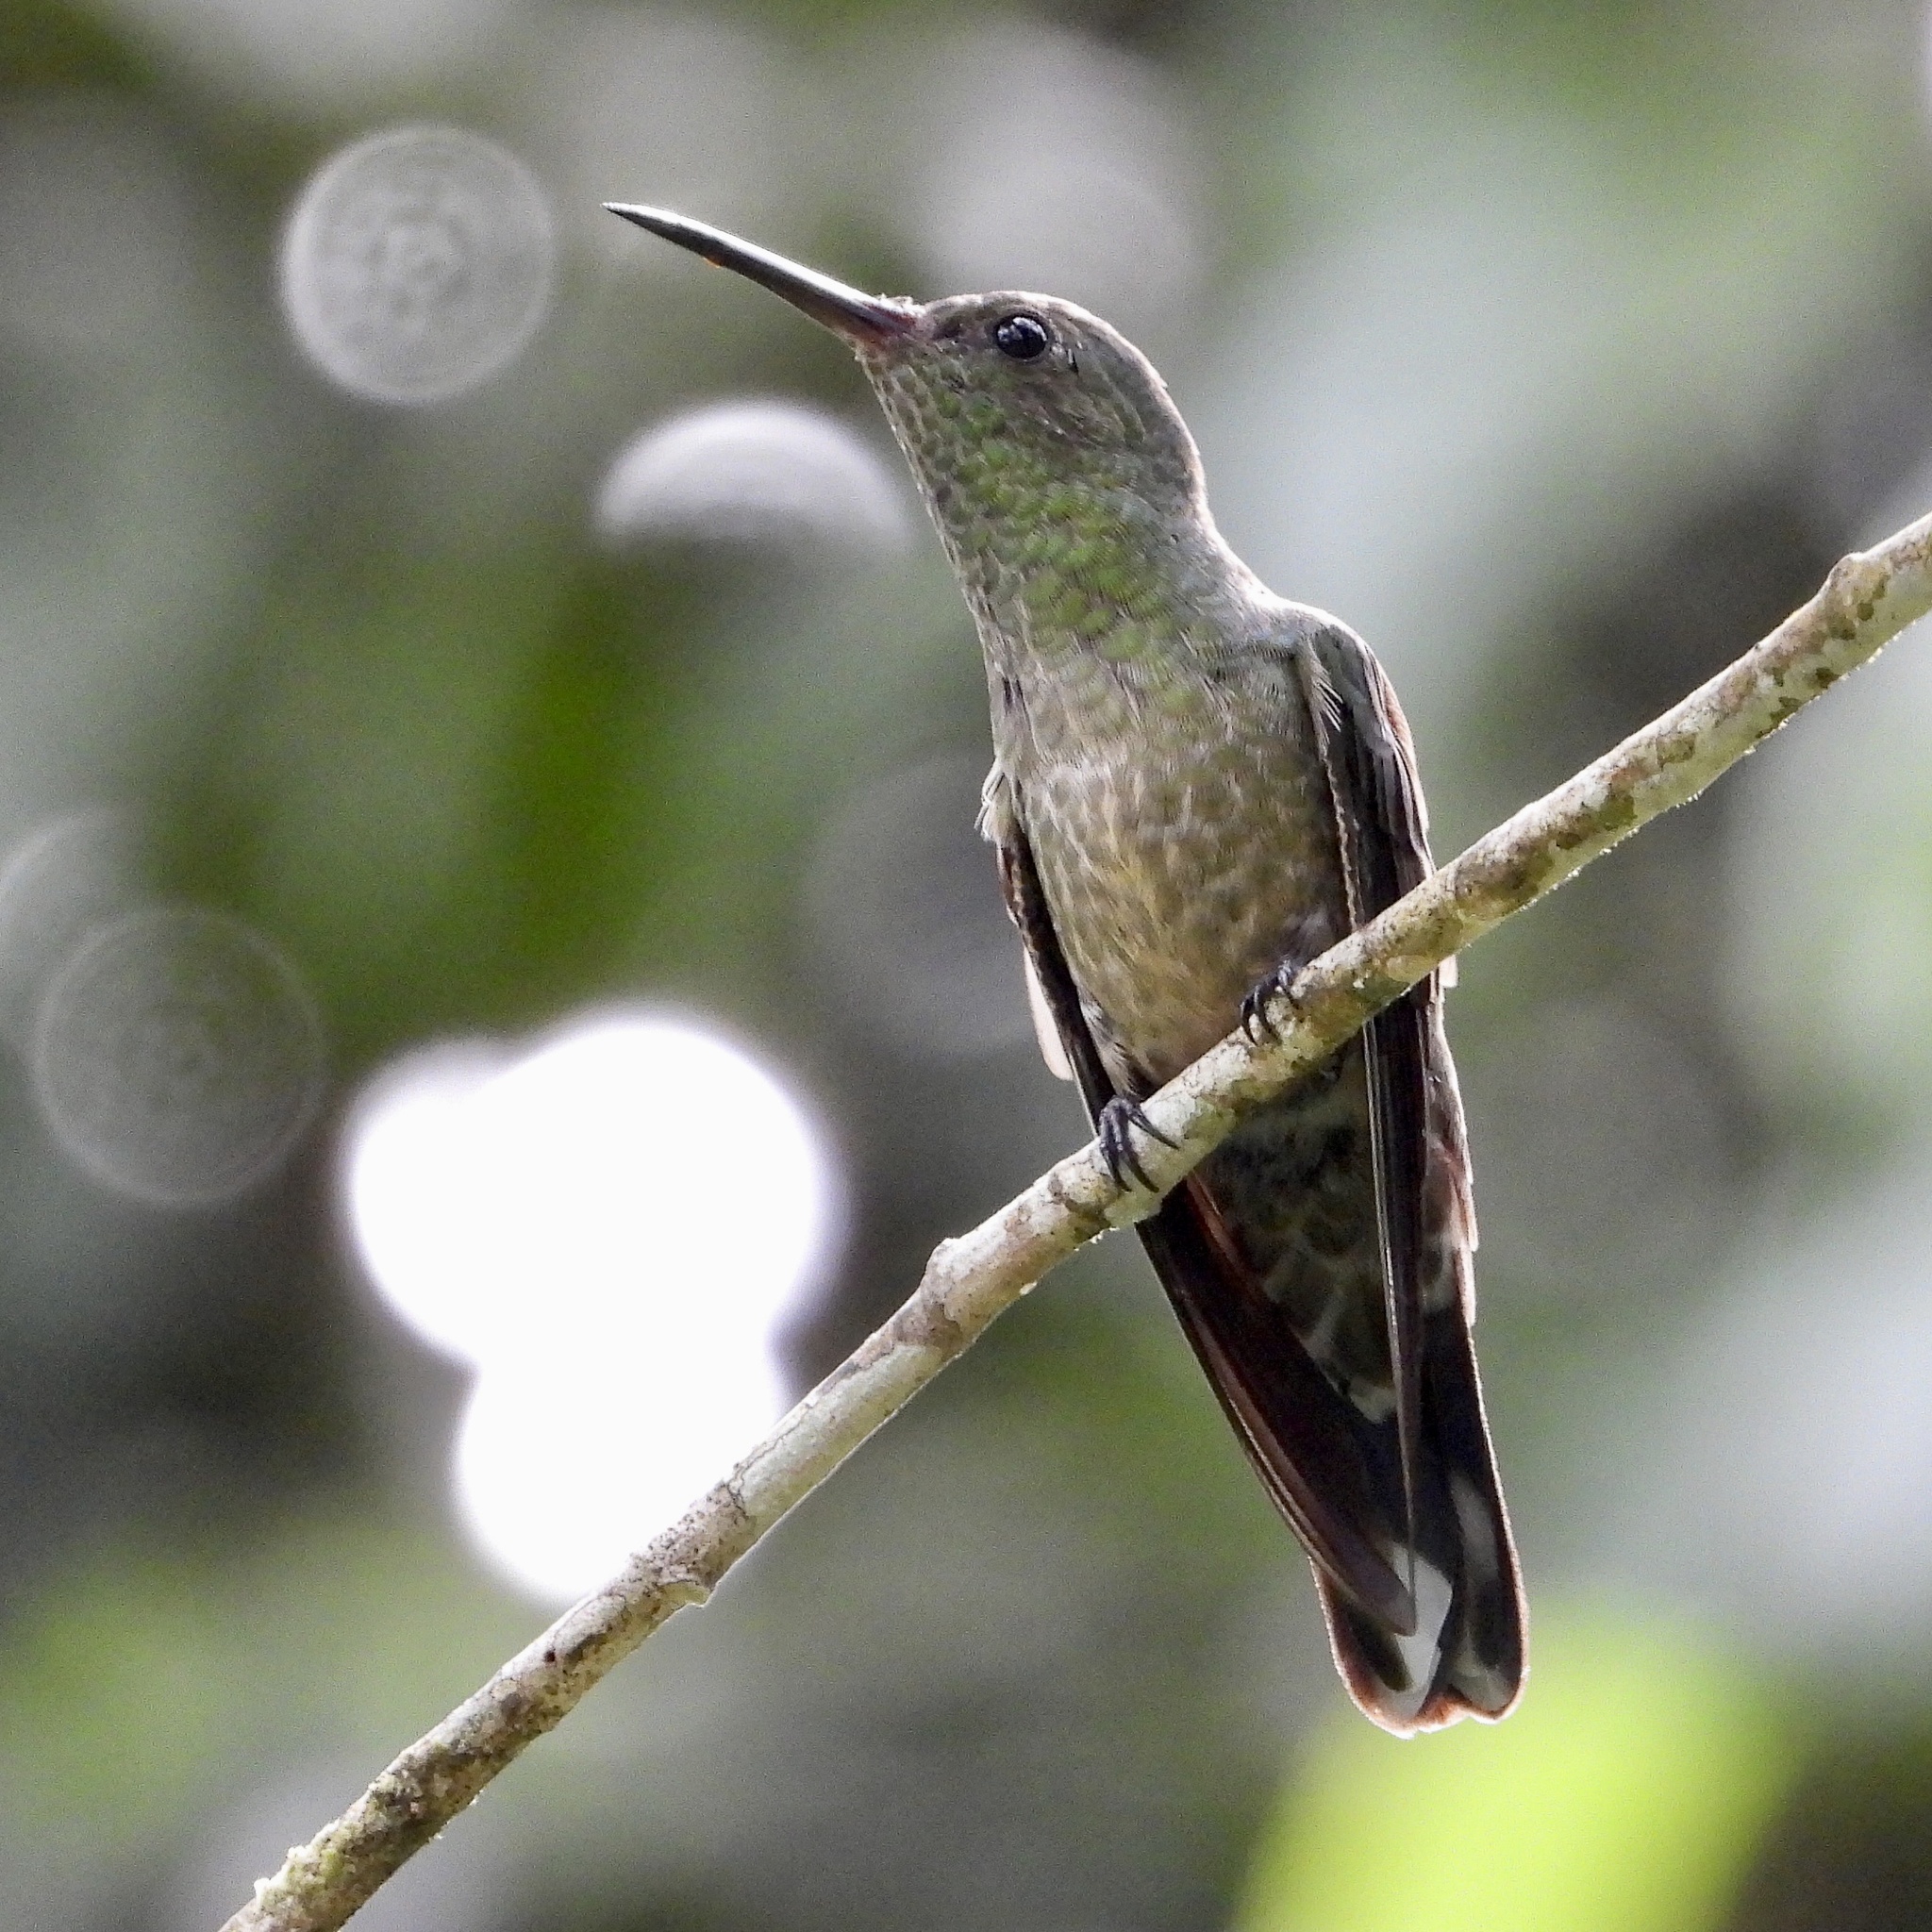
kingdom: Animalia
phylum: Chordata
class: Aves
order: Apodiformes
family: Trochilidae
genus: Phaeochroa
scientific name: Phaeochroa cuvierii
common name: Scaly-breasted hummingbird
